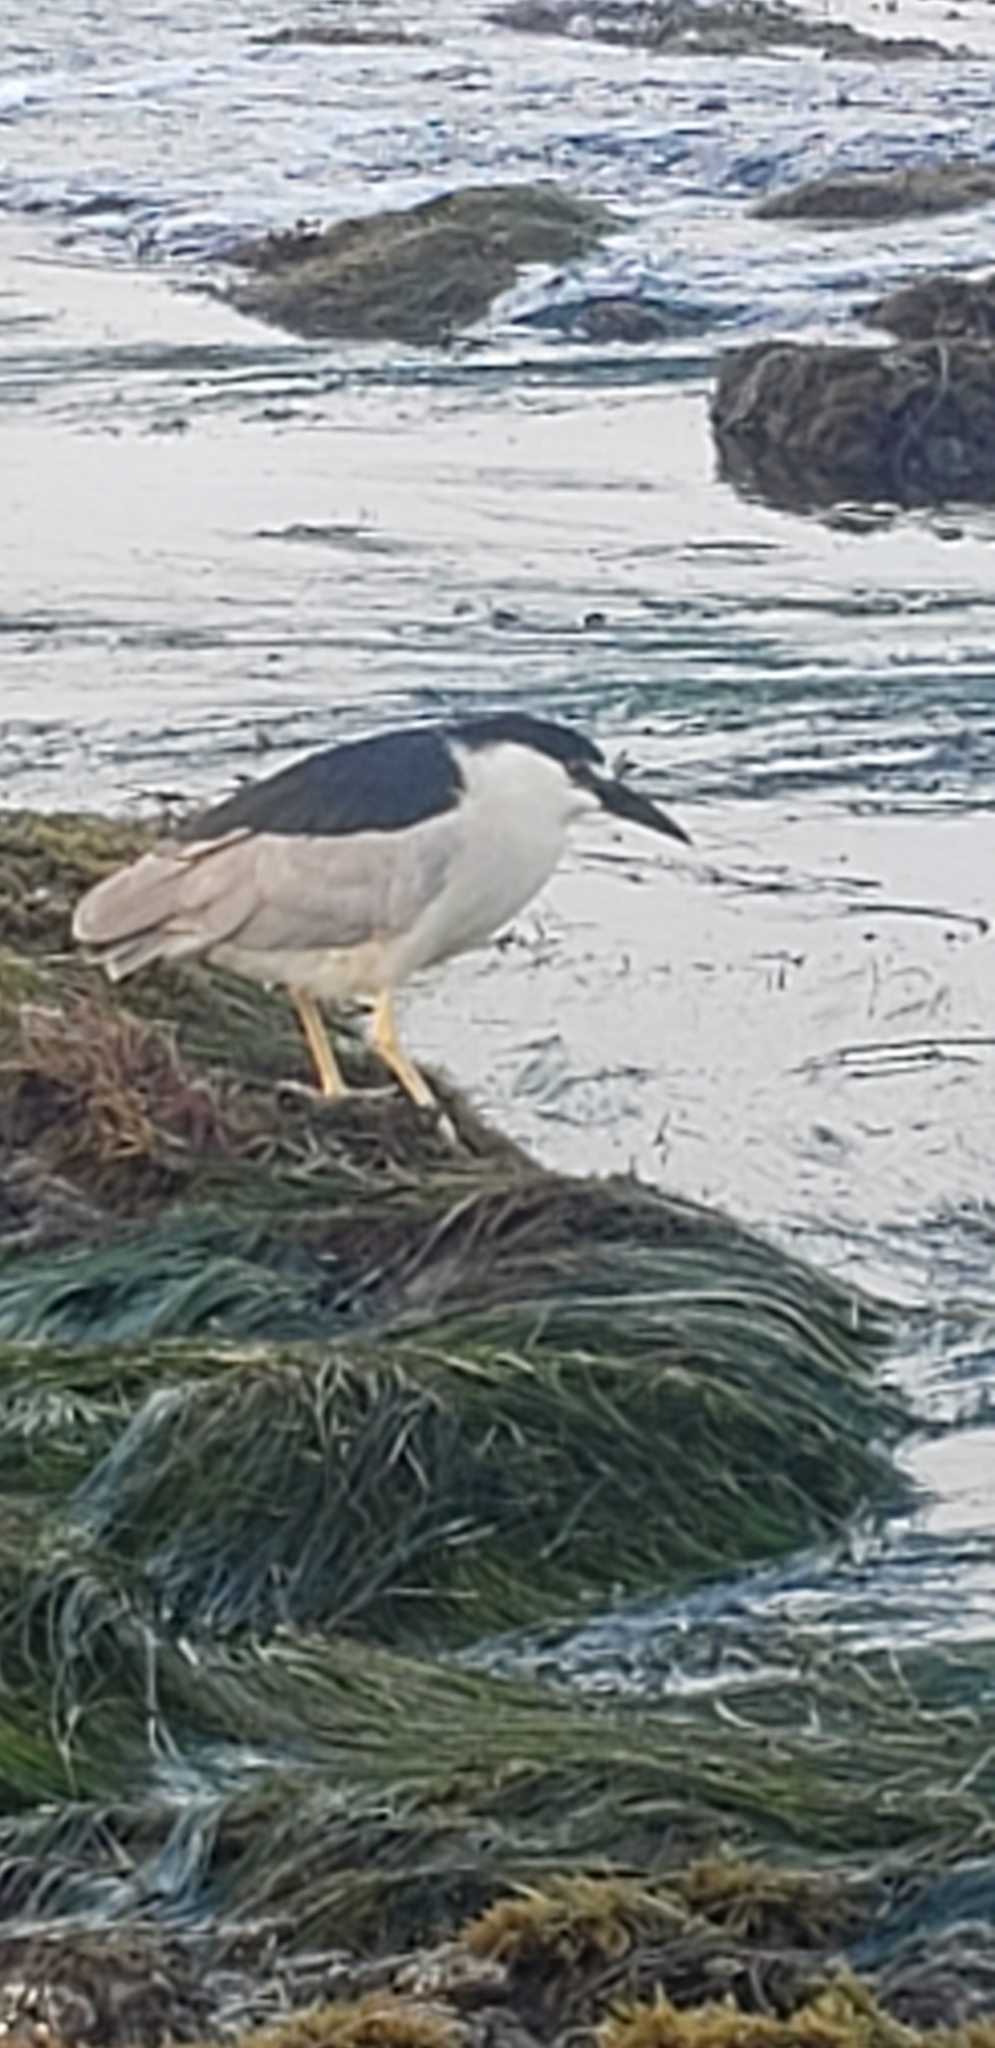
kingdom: Animalia
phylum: Chordata
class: Aves
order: Pelecaniformes
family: Ardeidae
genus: Nycticorax
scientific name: Nycticorax nycticorax
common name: Black-crowned night heron
